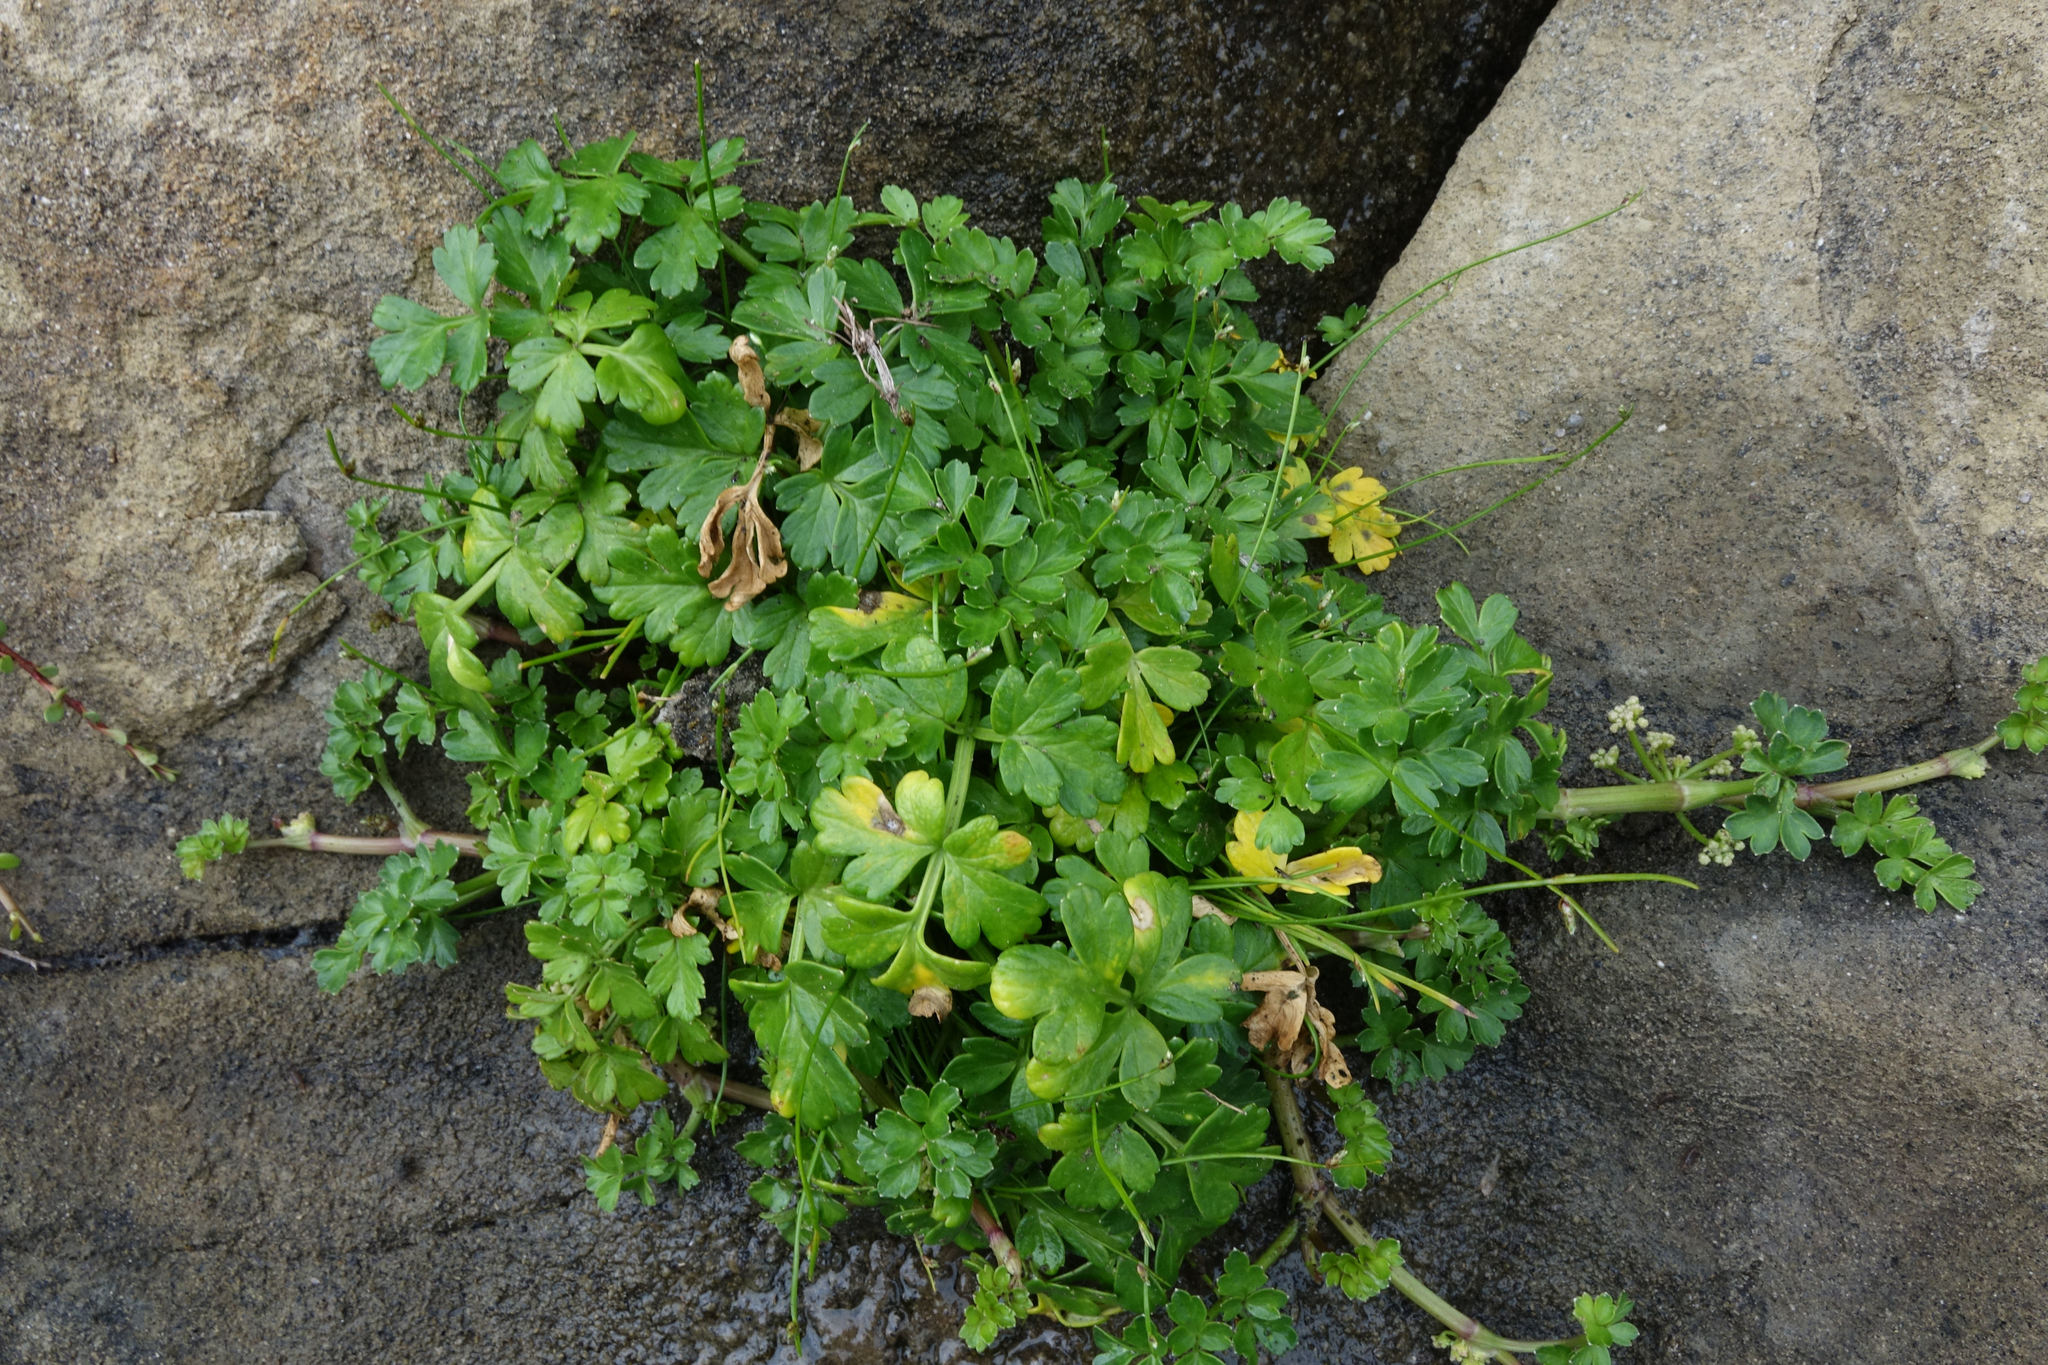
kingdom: Plantae
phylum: Tracheophyta
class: Magnoliopsida
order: Apiales
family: Apiaceae
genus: Apium
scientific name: Apium prostratum
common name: Prostrate marshwort
